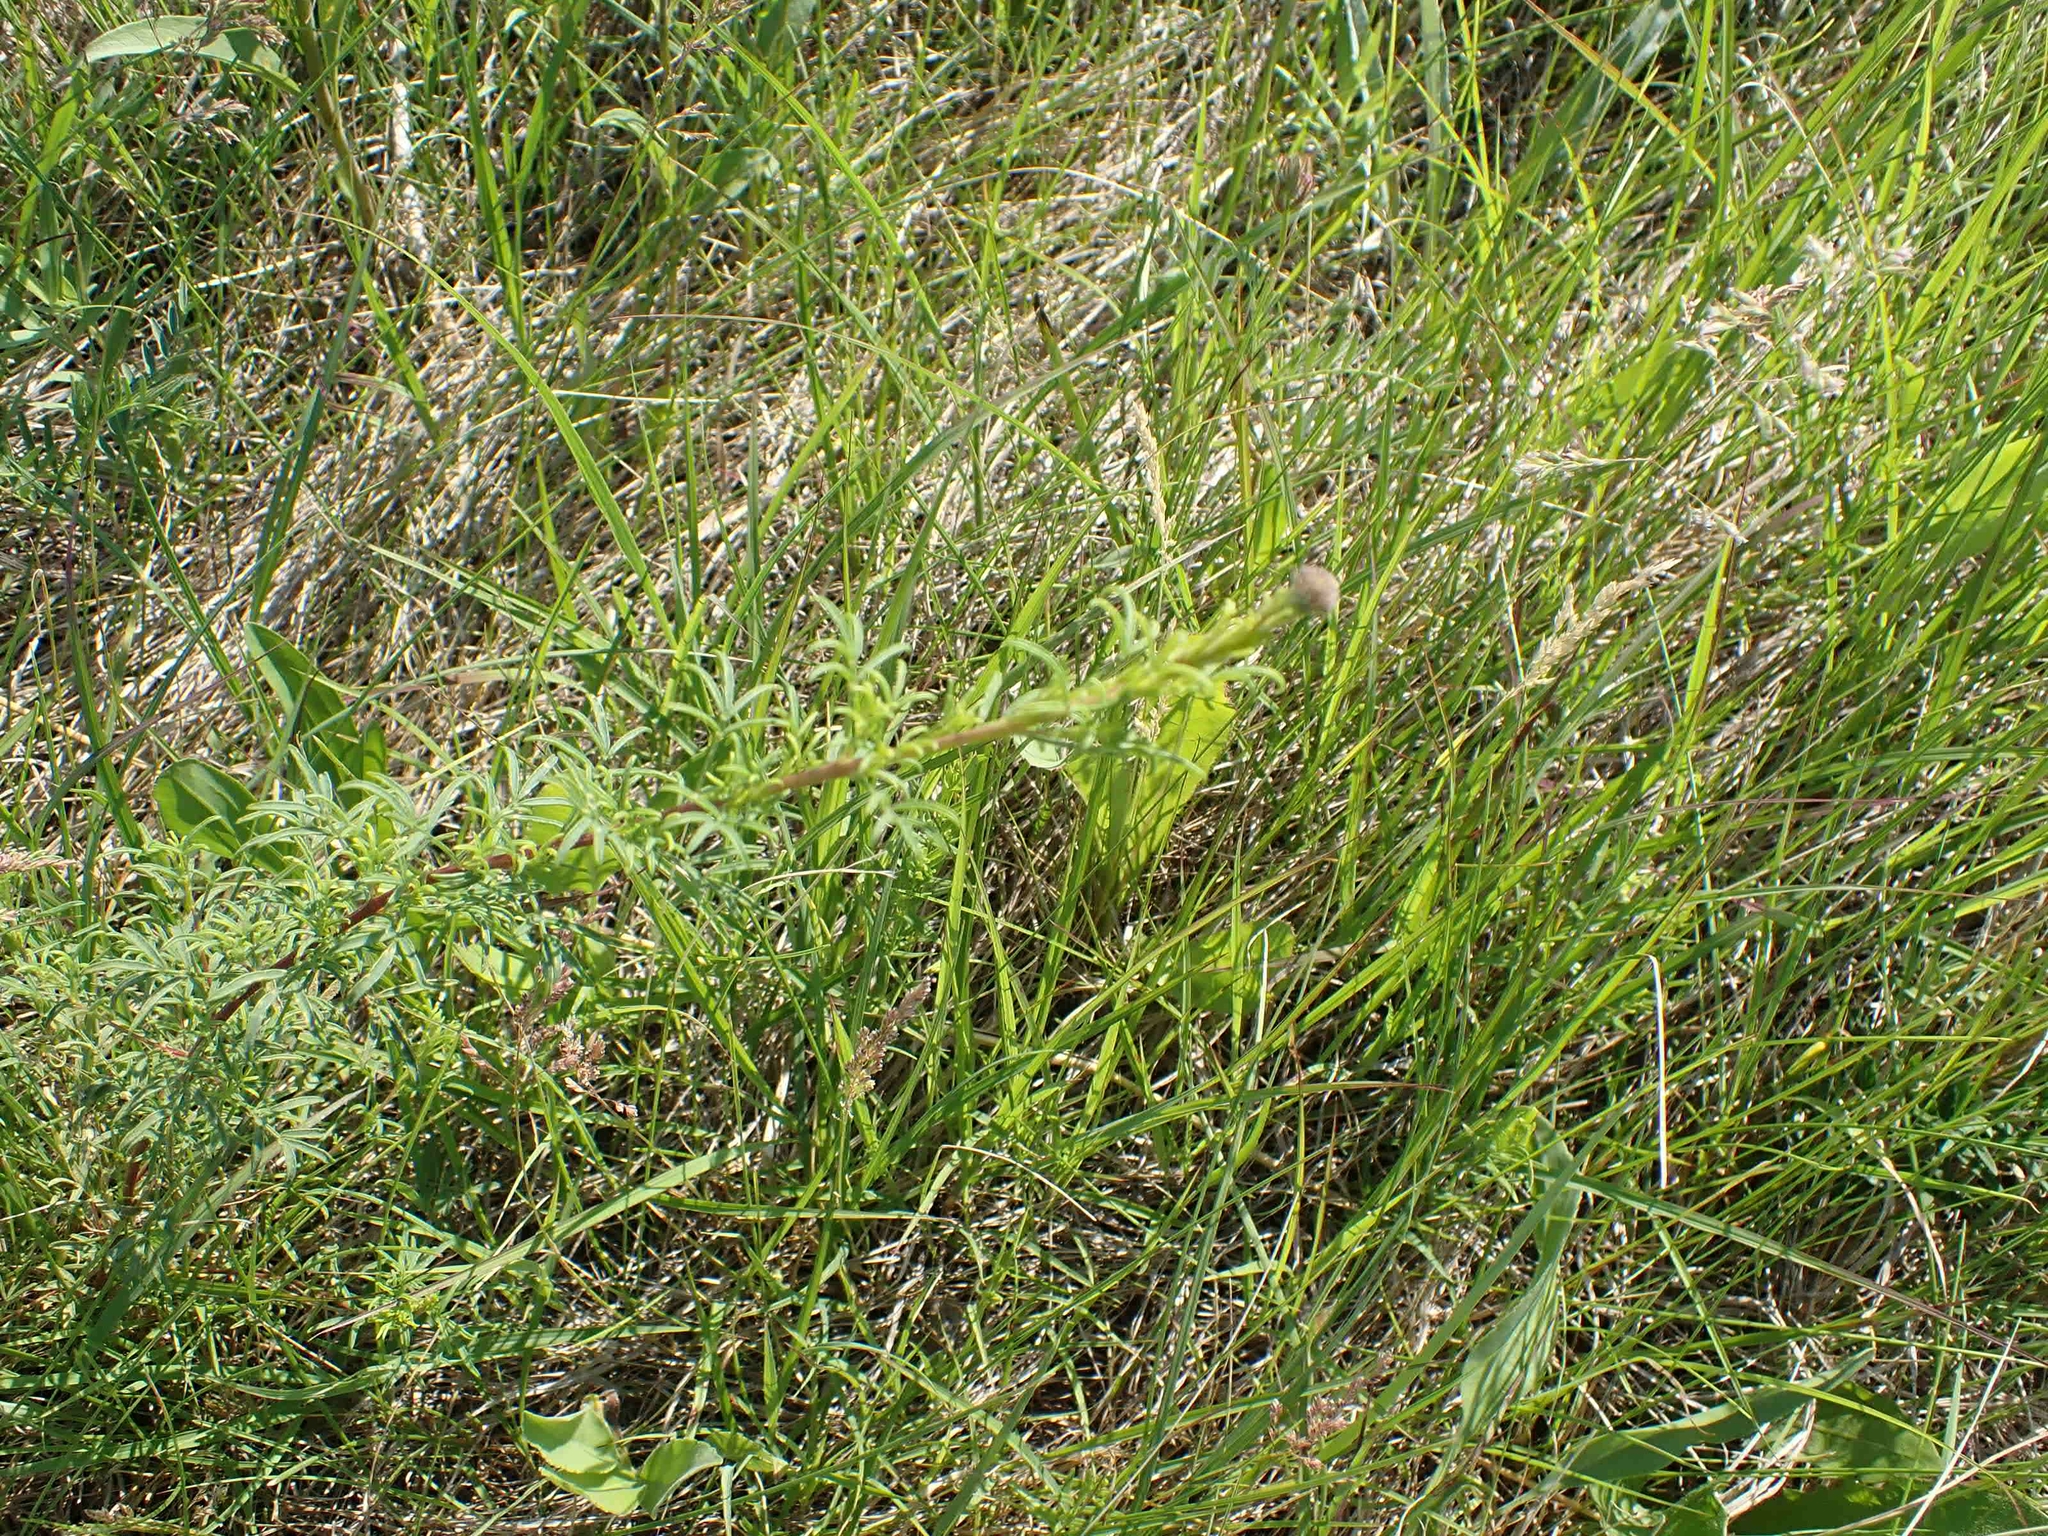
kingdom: Plantae
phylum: Tracheophyta
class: Magnoliopsida
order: Fabales
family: Fabaceae
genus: Dalea
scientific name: Dalea purpurea
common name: Purple prairie-clover
